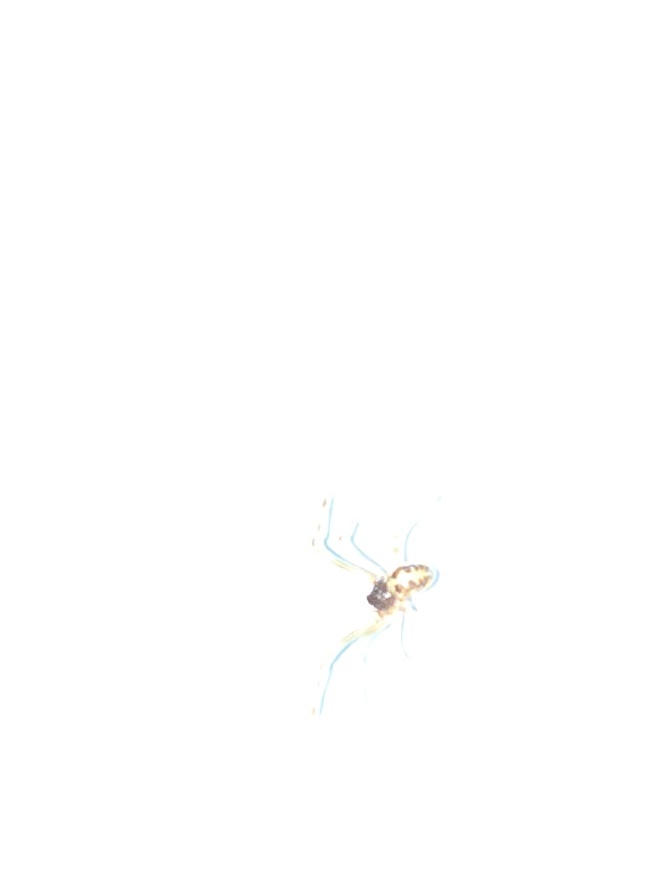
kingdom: Animalia
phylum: Arthropoda
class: Arachnida
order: Araneae
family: Theridiidae
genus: Steatoda
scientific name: Steatoda triangulosa
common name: Triangulate bud spider
